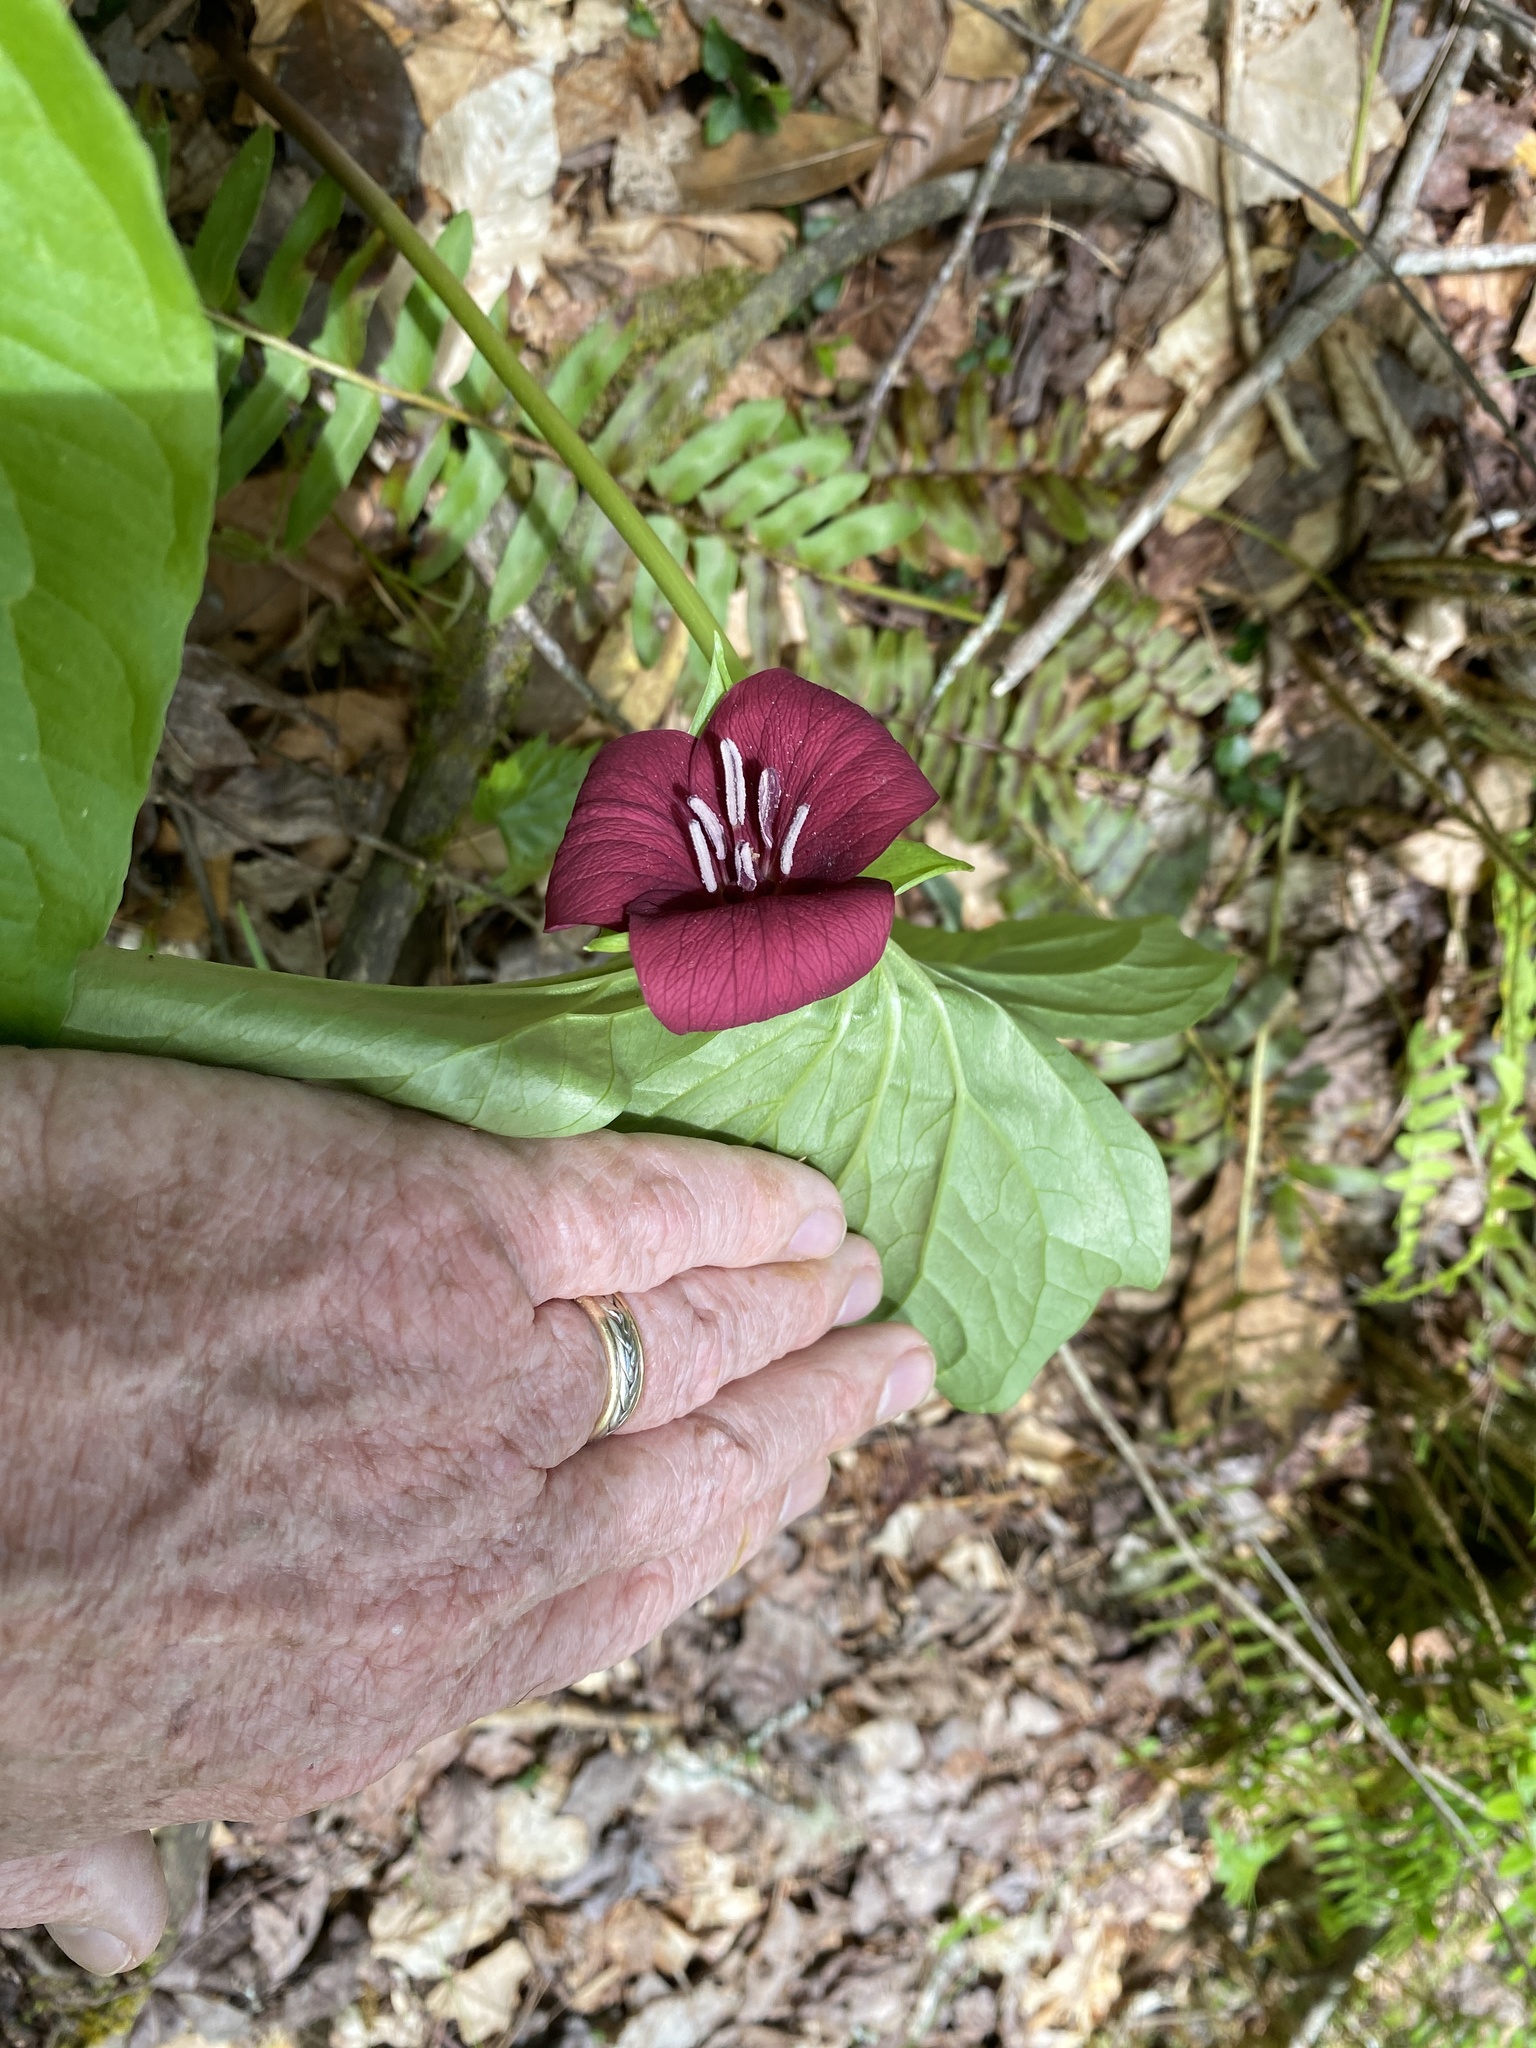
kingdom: Plantae
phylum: Tracheophyta
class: Liliopsida
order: Liliales
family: Melanthiaceae
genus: Trillium
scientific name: Trillium vaseyi
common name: Sweet trillium
